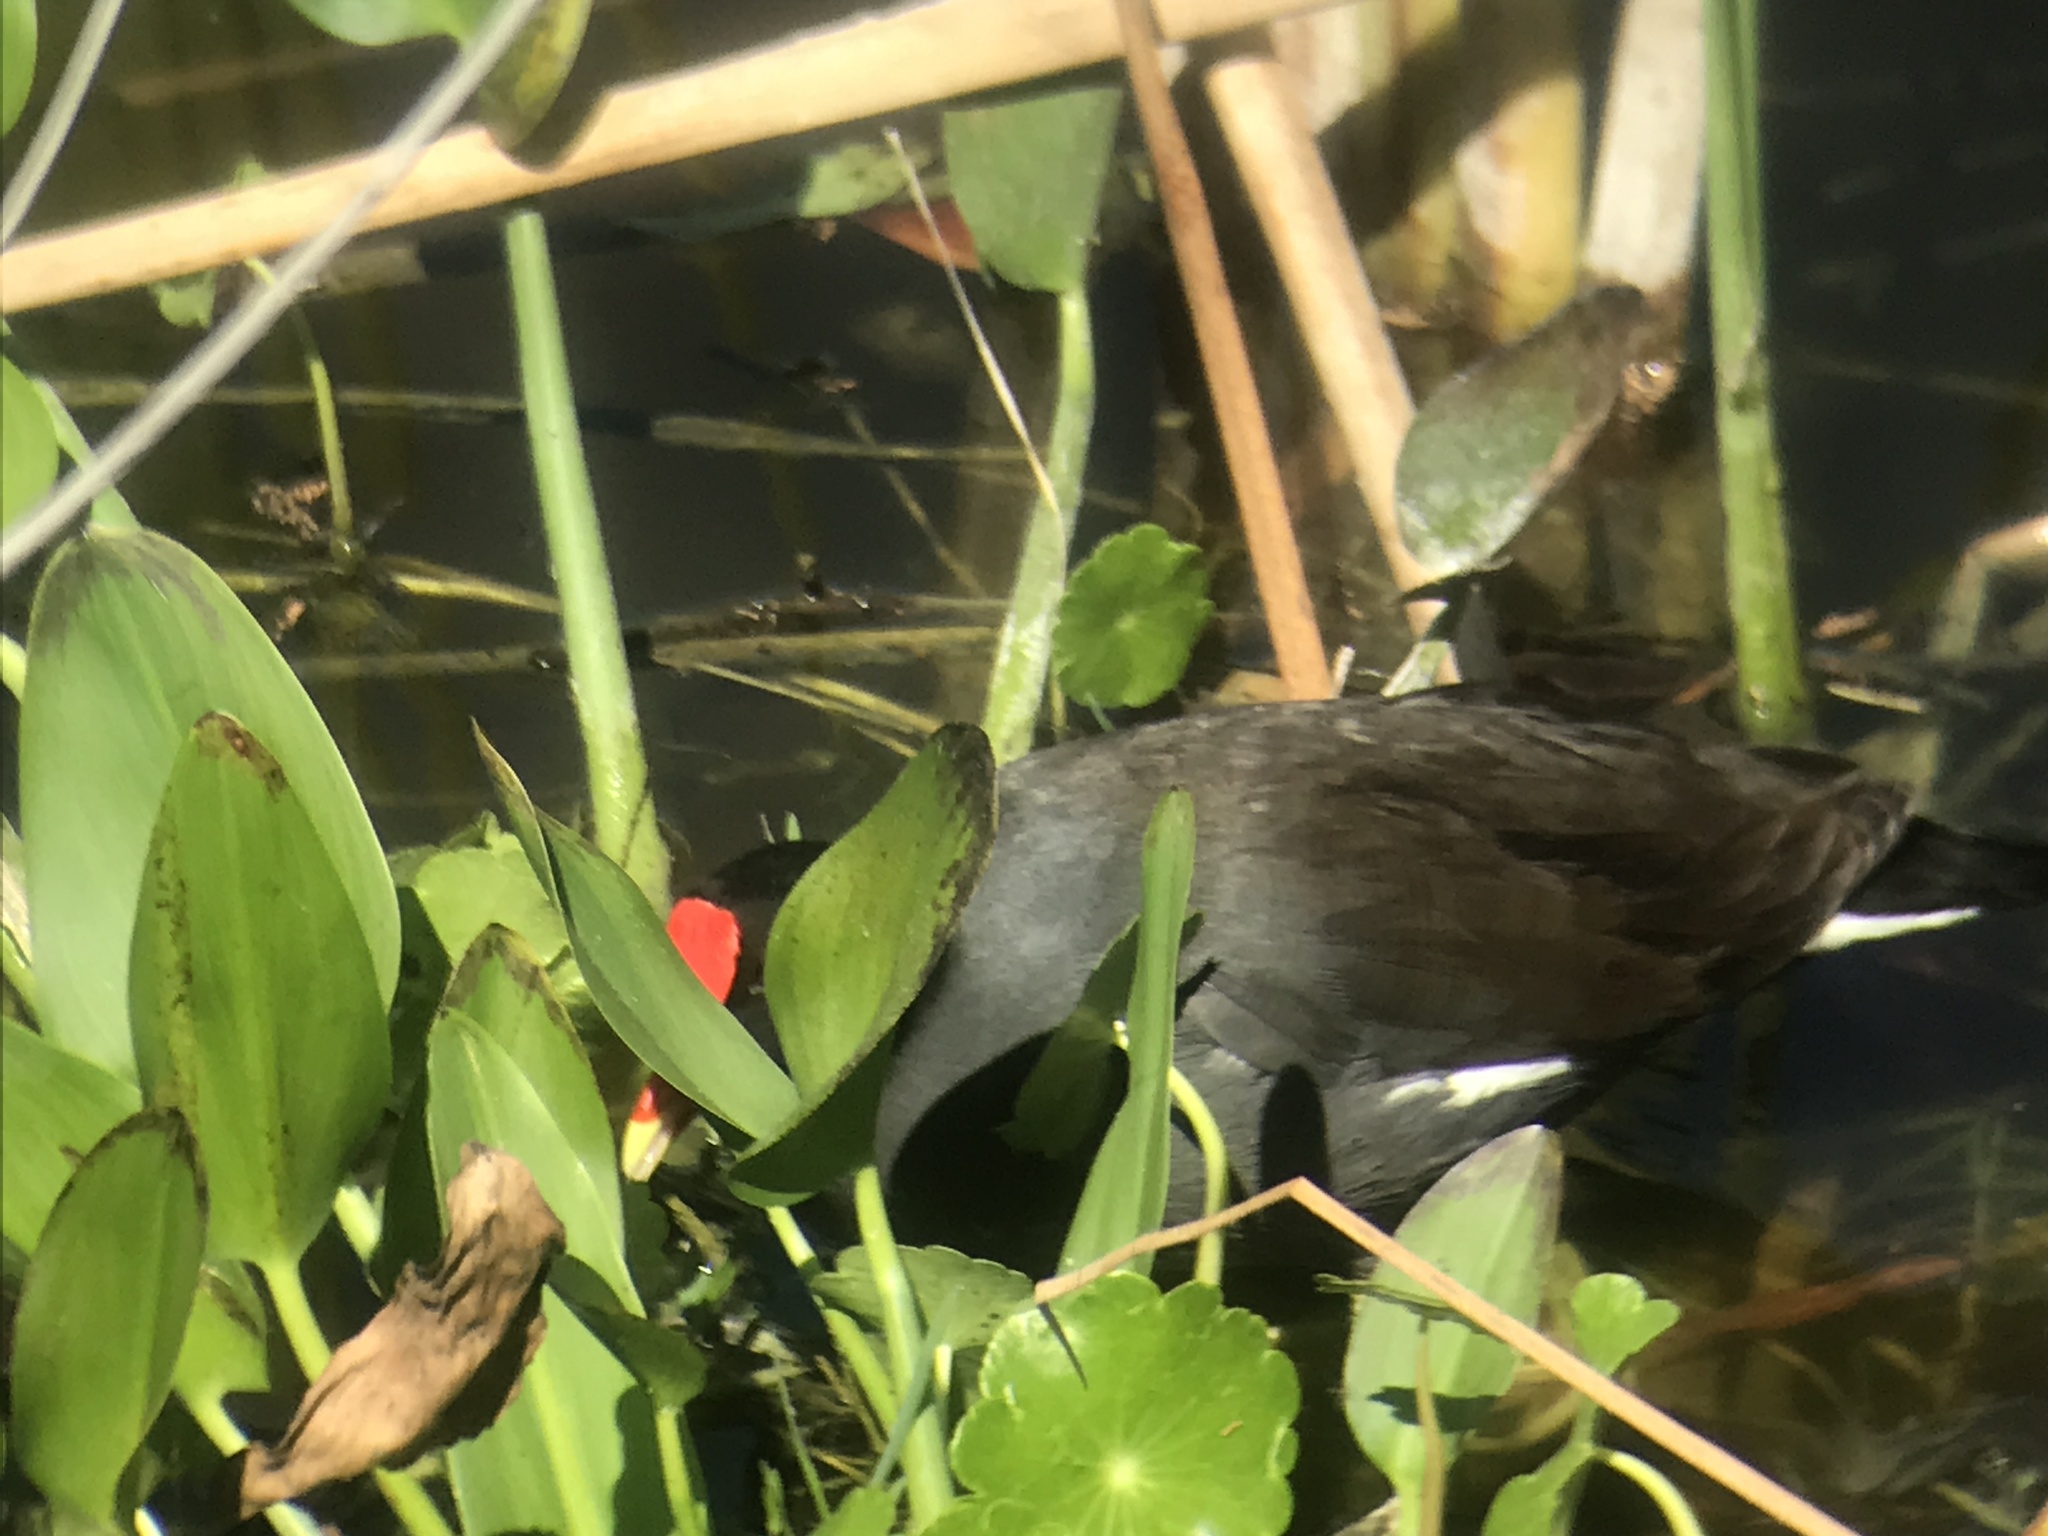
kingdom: Animalia
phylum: Chordata
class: Aves
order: Gruiformes
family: Rallidae
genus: Gallinula
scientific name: Gallinula chloropus
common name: Common moorhen
